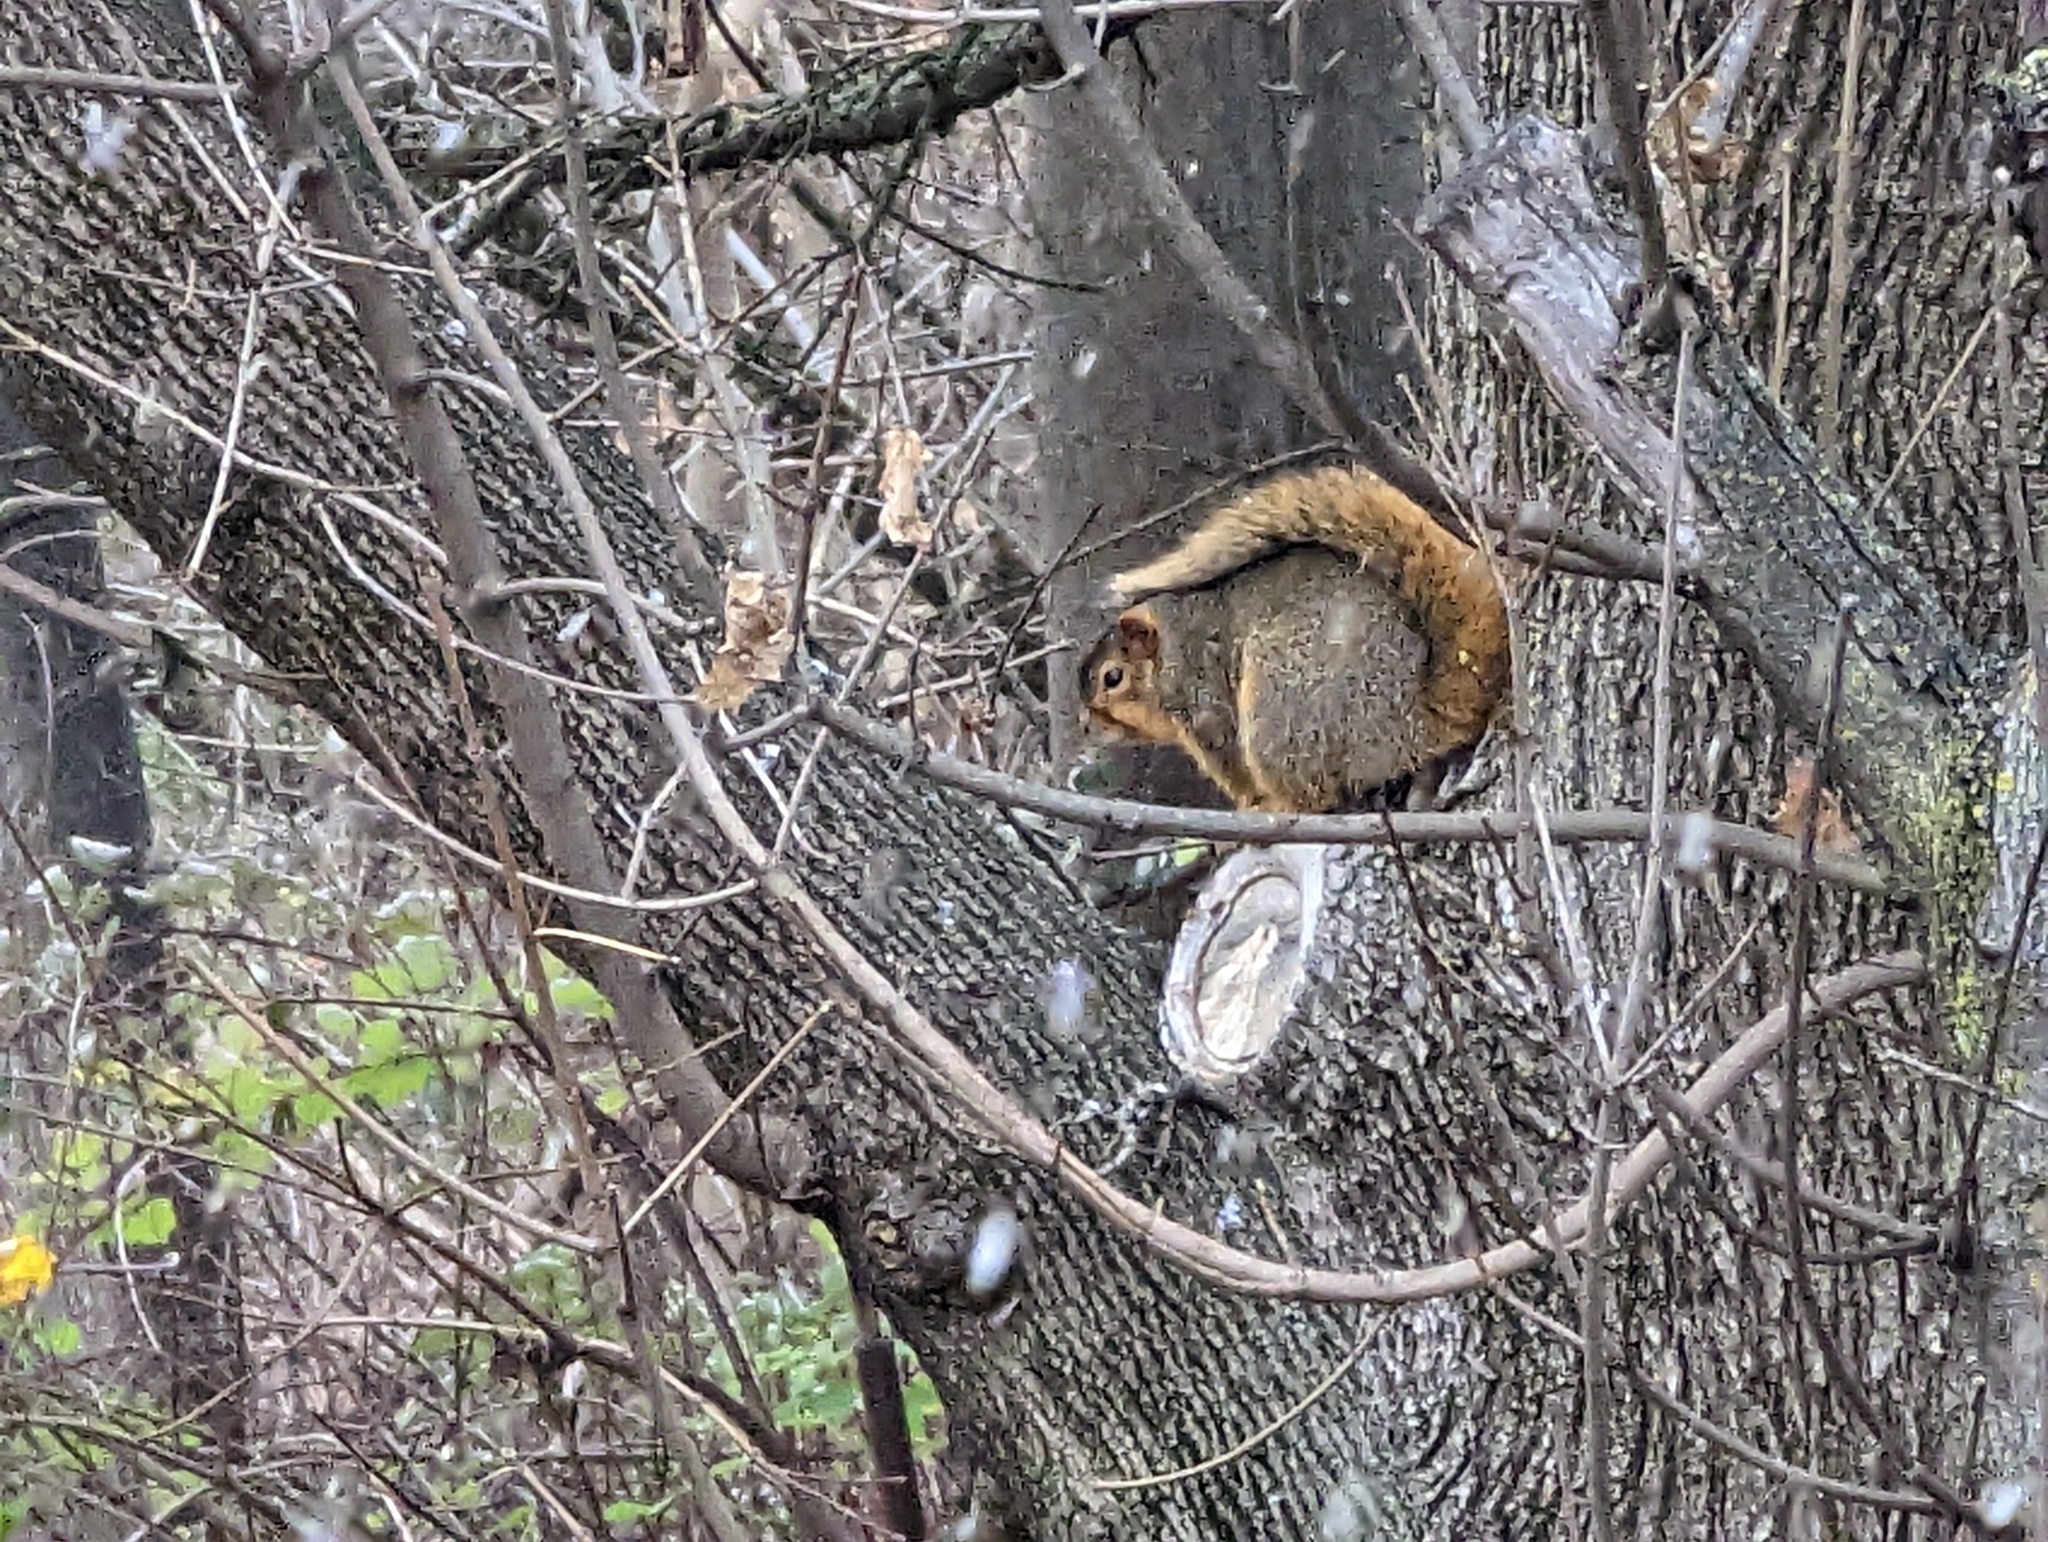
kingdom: Animalia
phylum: Chordata
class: Mammalia
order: Rodentia
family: Sciuridae
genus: Sciurus
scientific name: Sciurus niger
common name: Fox squirrel
